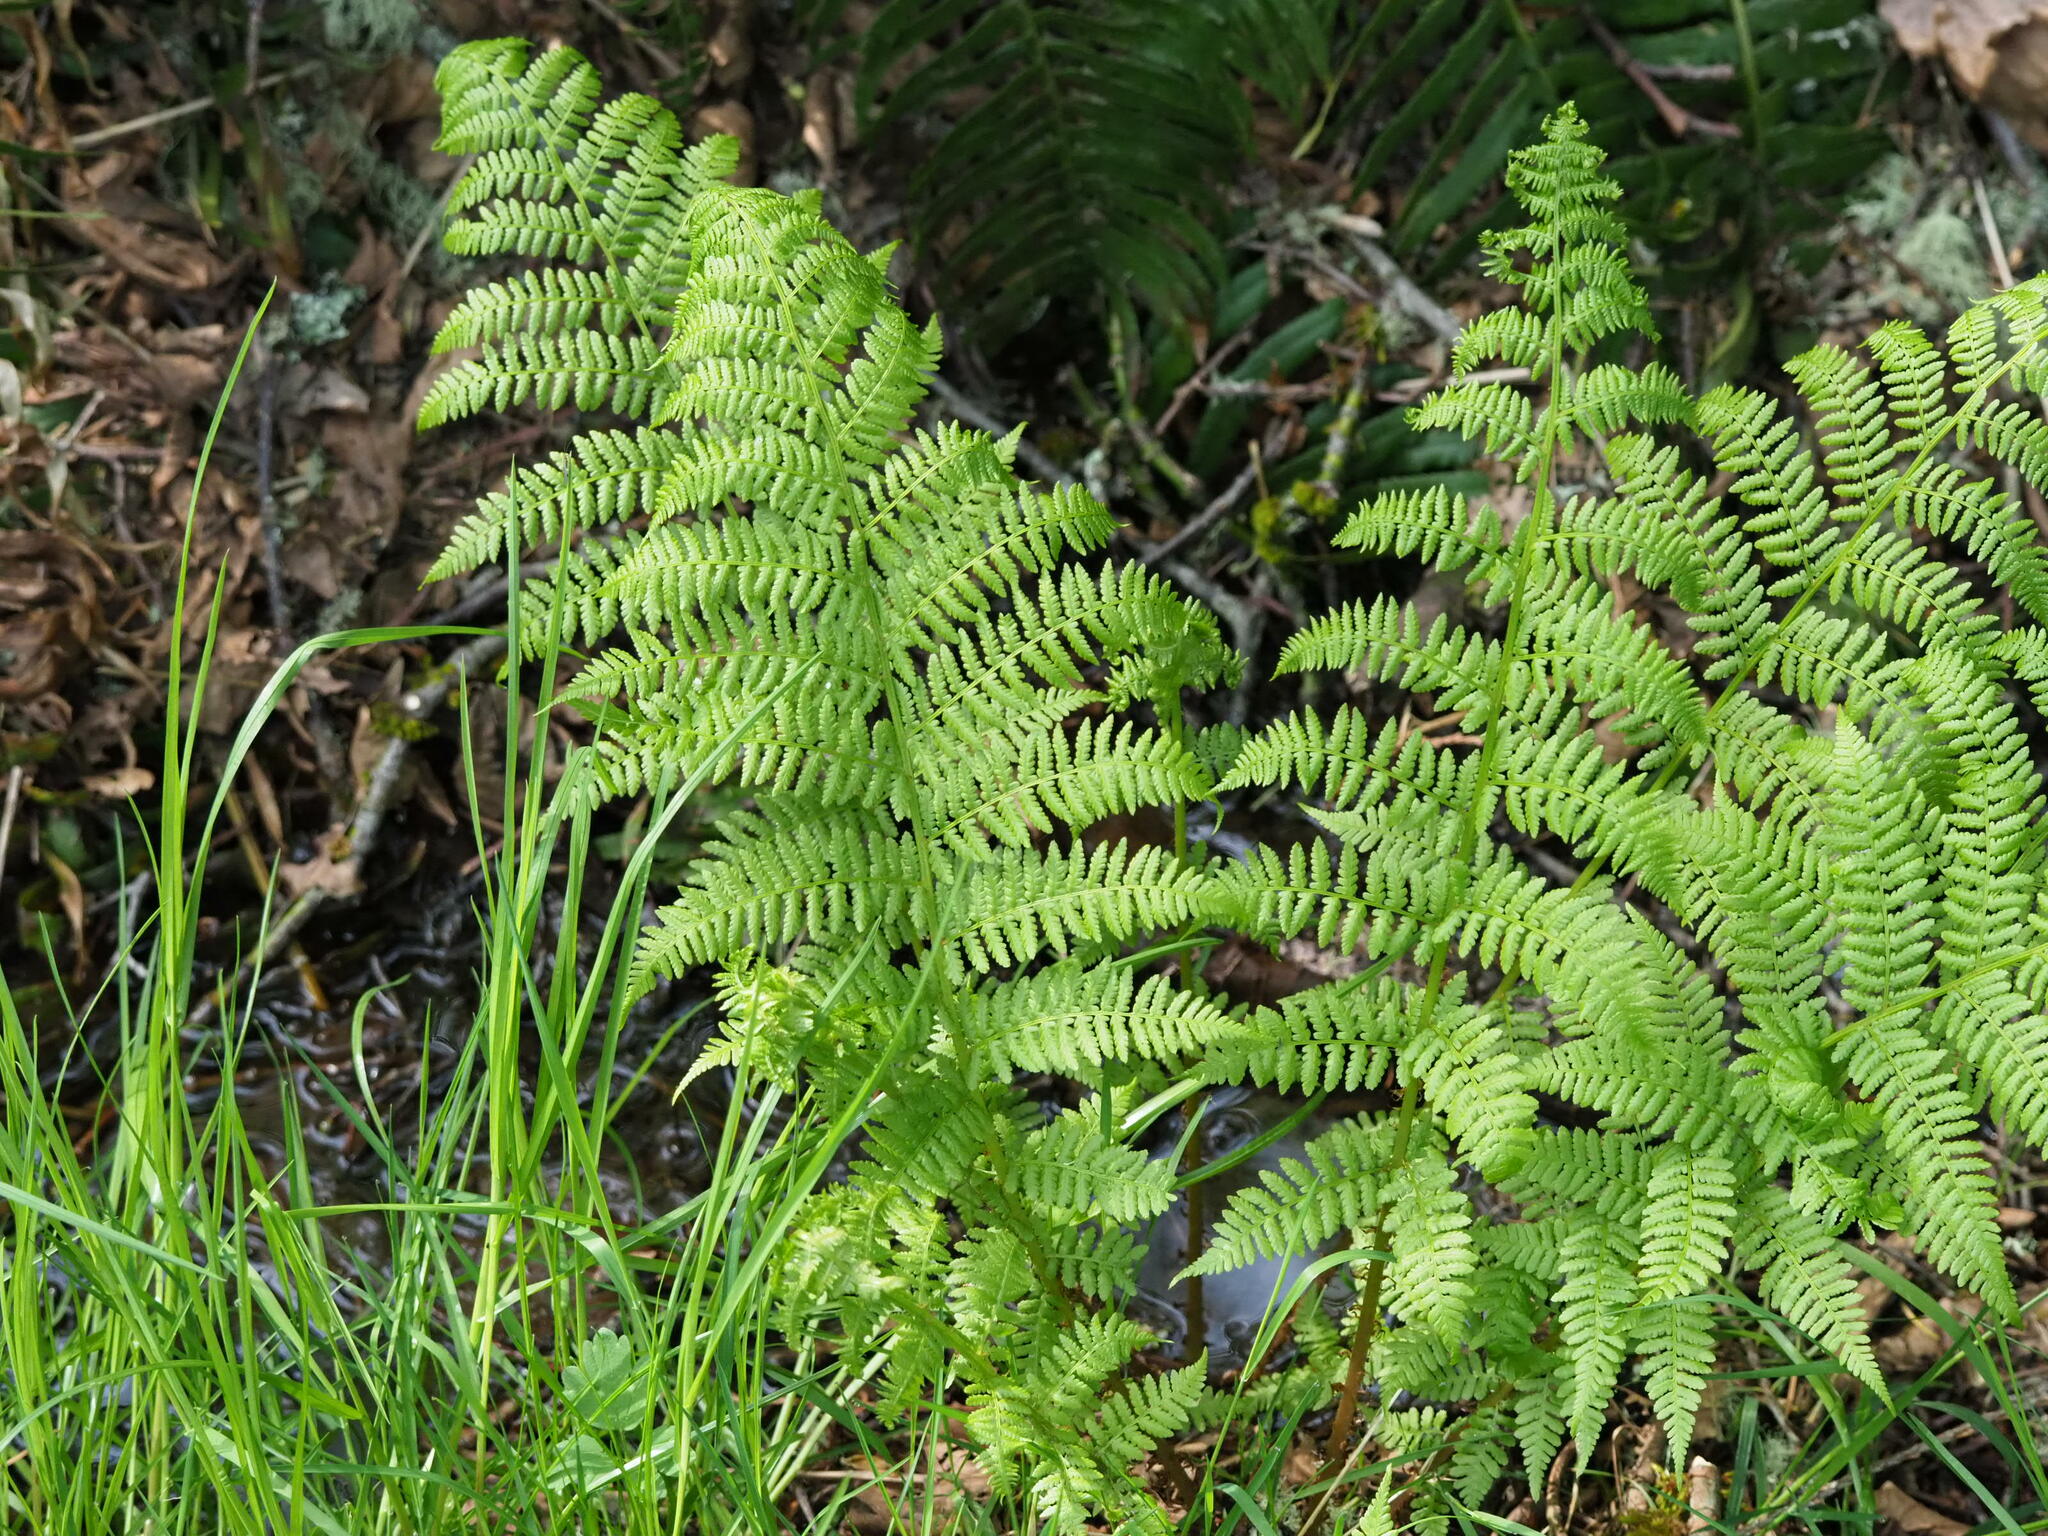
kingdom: Plantae
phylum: Tracheophyta
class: Polypodiopsida
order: Polypodiales
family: Athyriaceae
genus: Athyrium
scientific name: Athyrium filix-femina
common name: Lady fern
